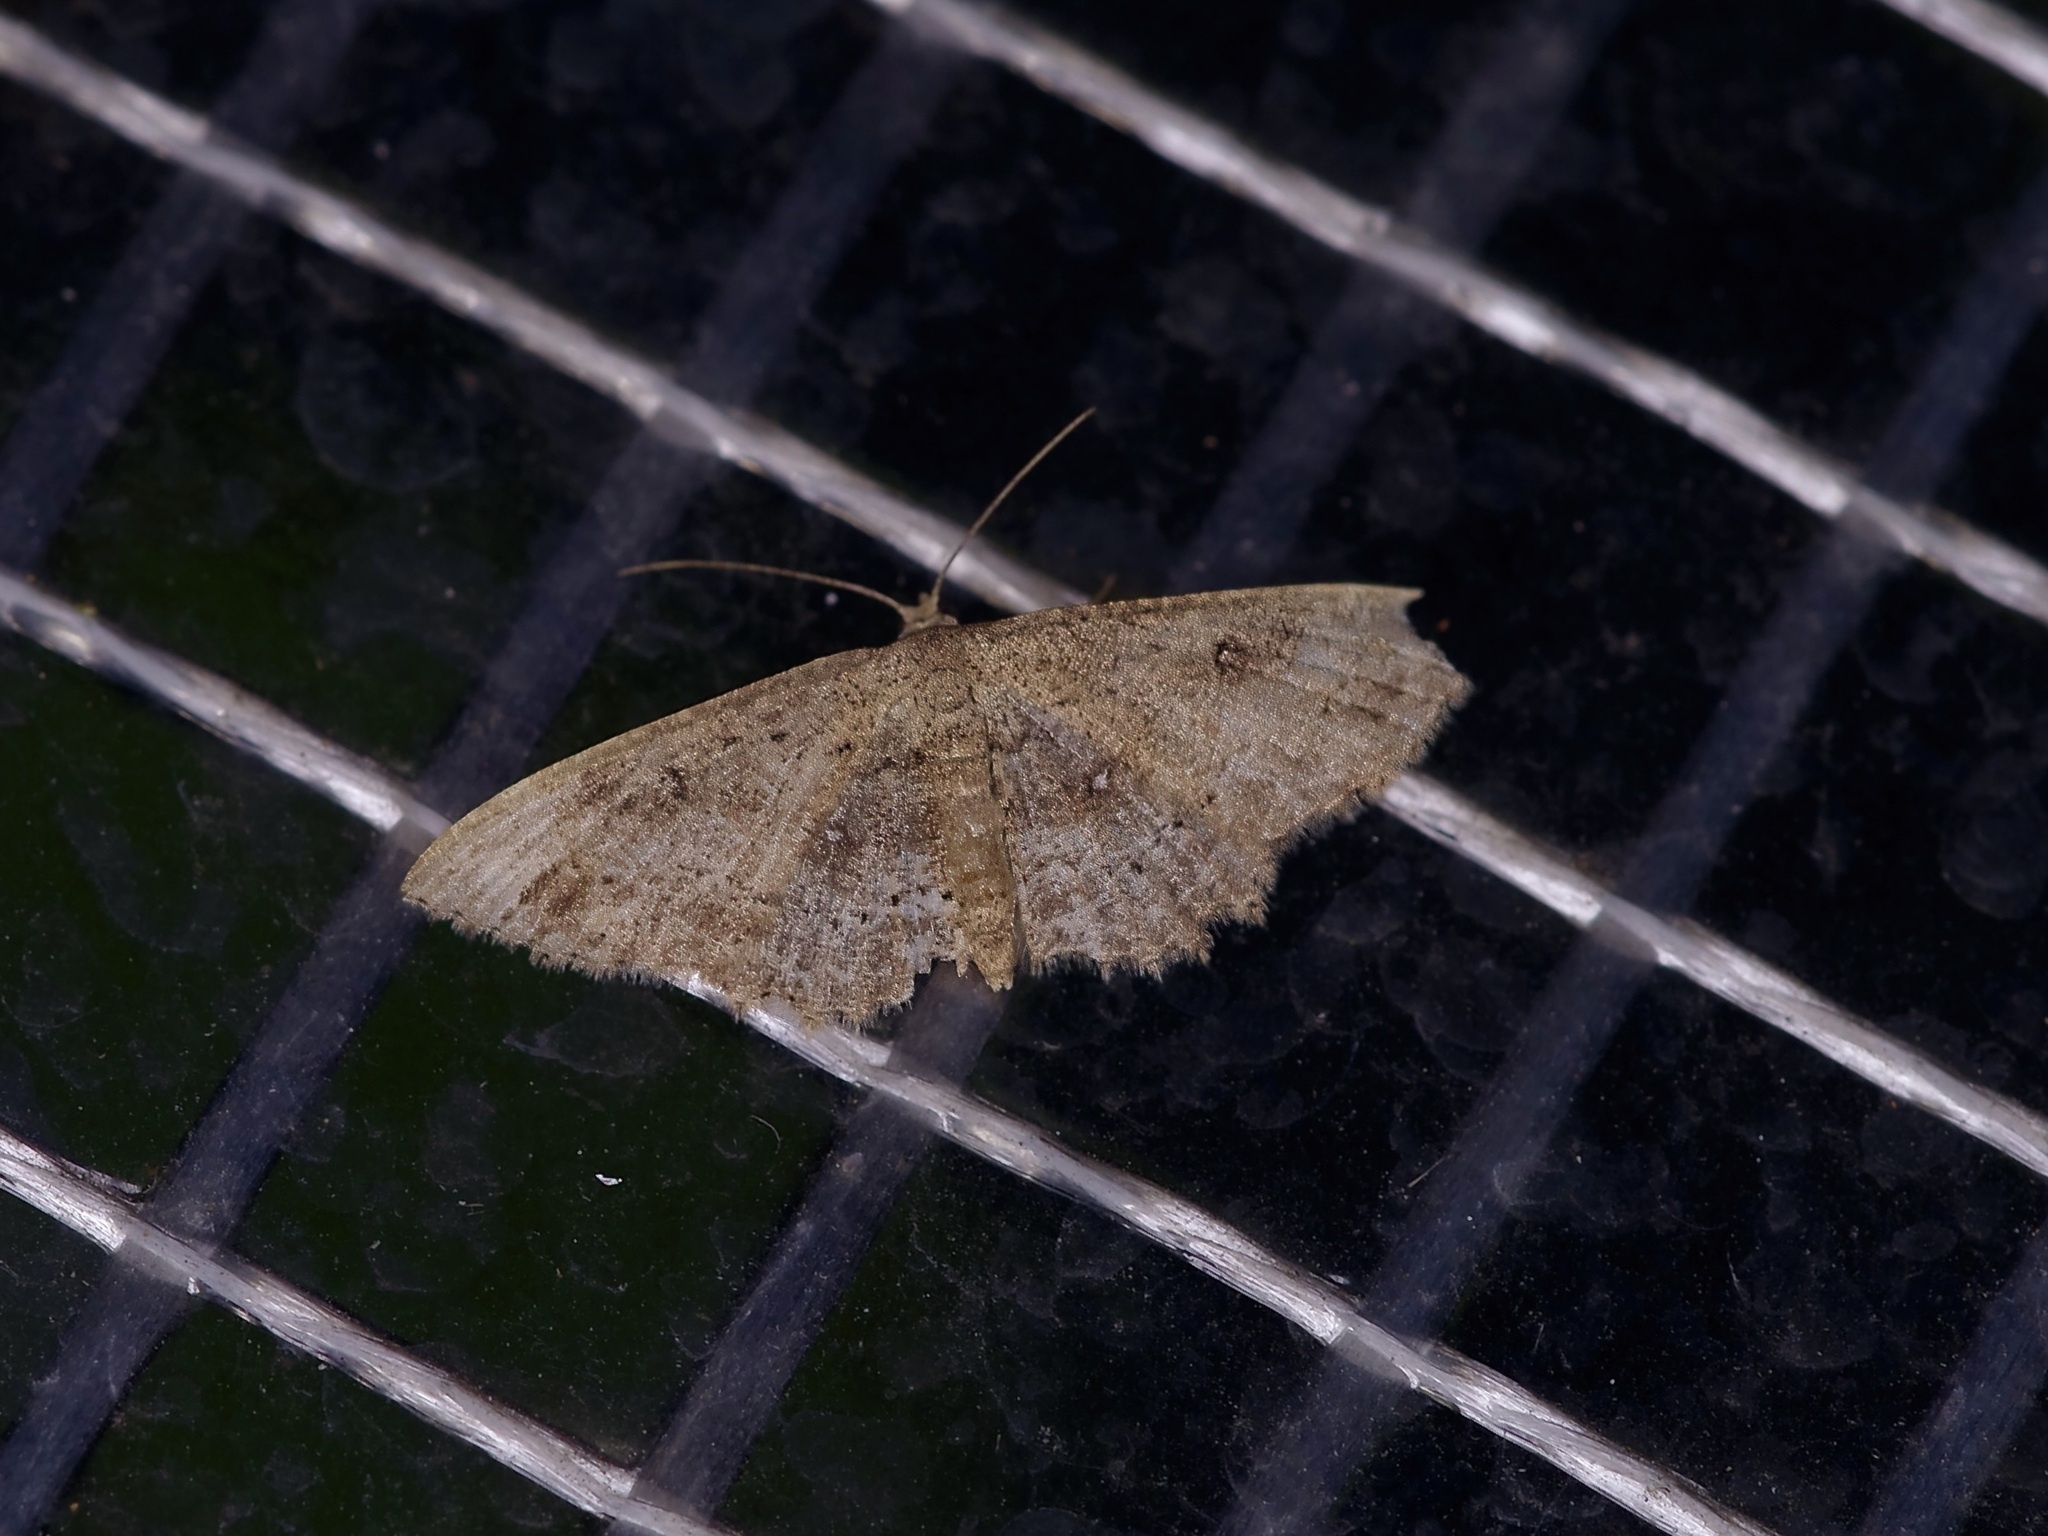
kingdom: Animalia
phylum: Arthropoda
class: Insecta
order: Lepidoptera
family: Geometridae
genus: Cyclophora
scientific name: Cyclophora nanaria
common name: Cankerworm
